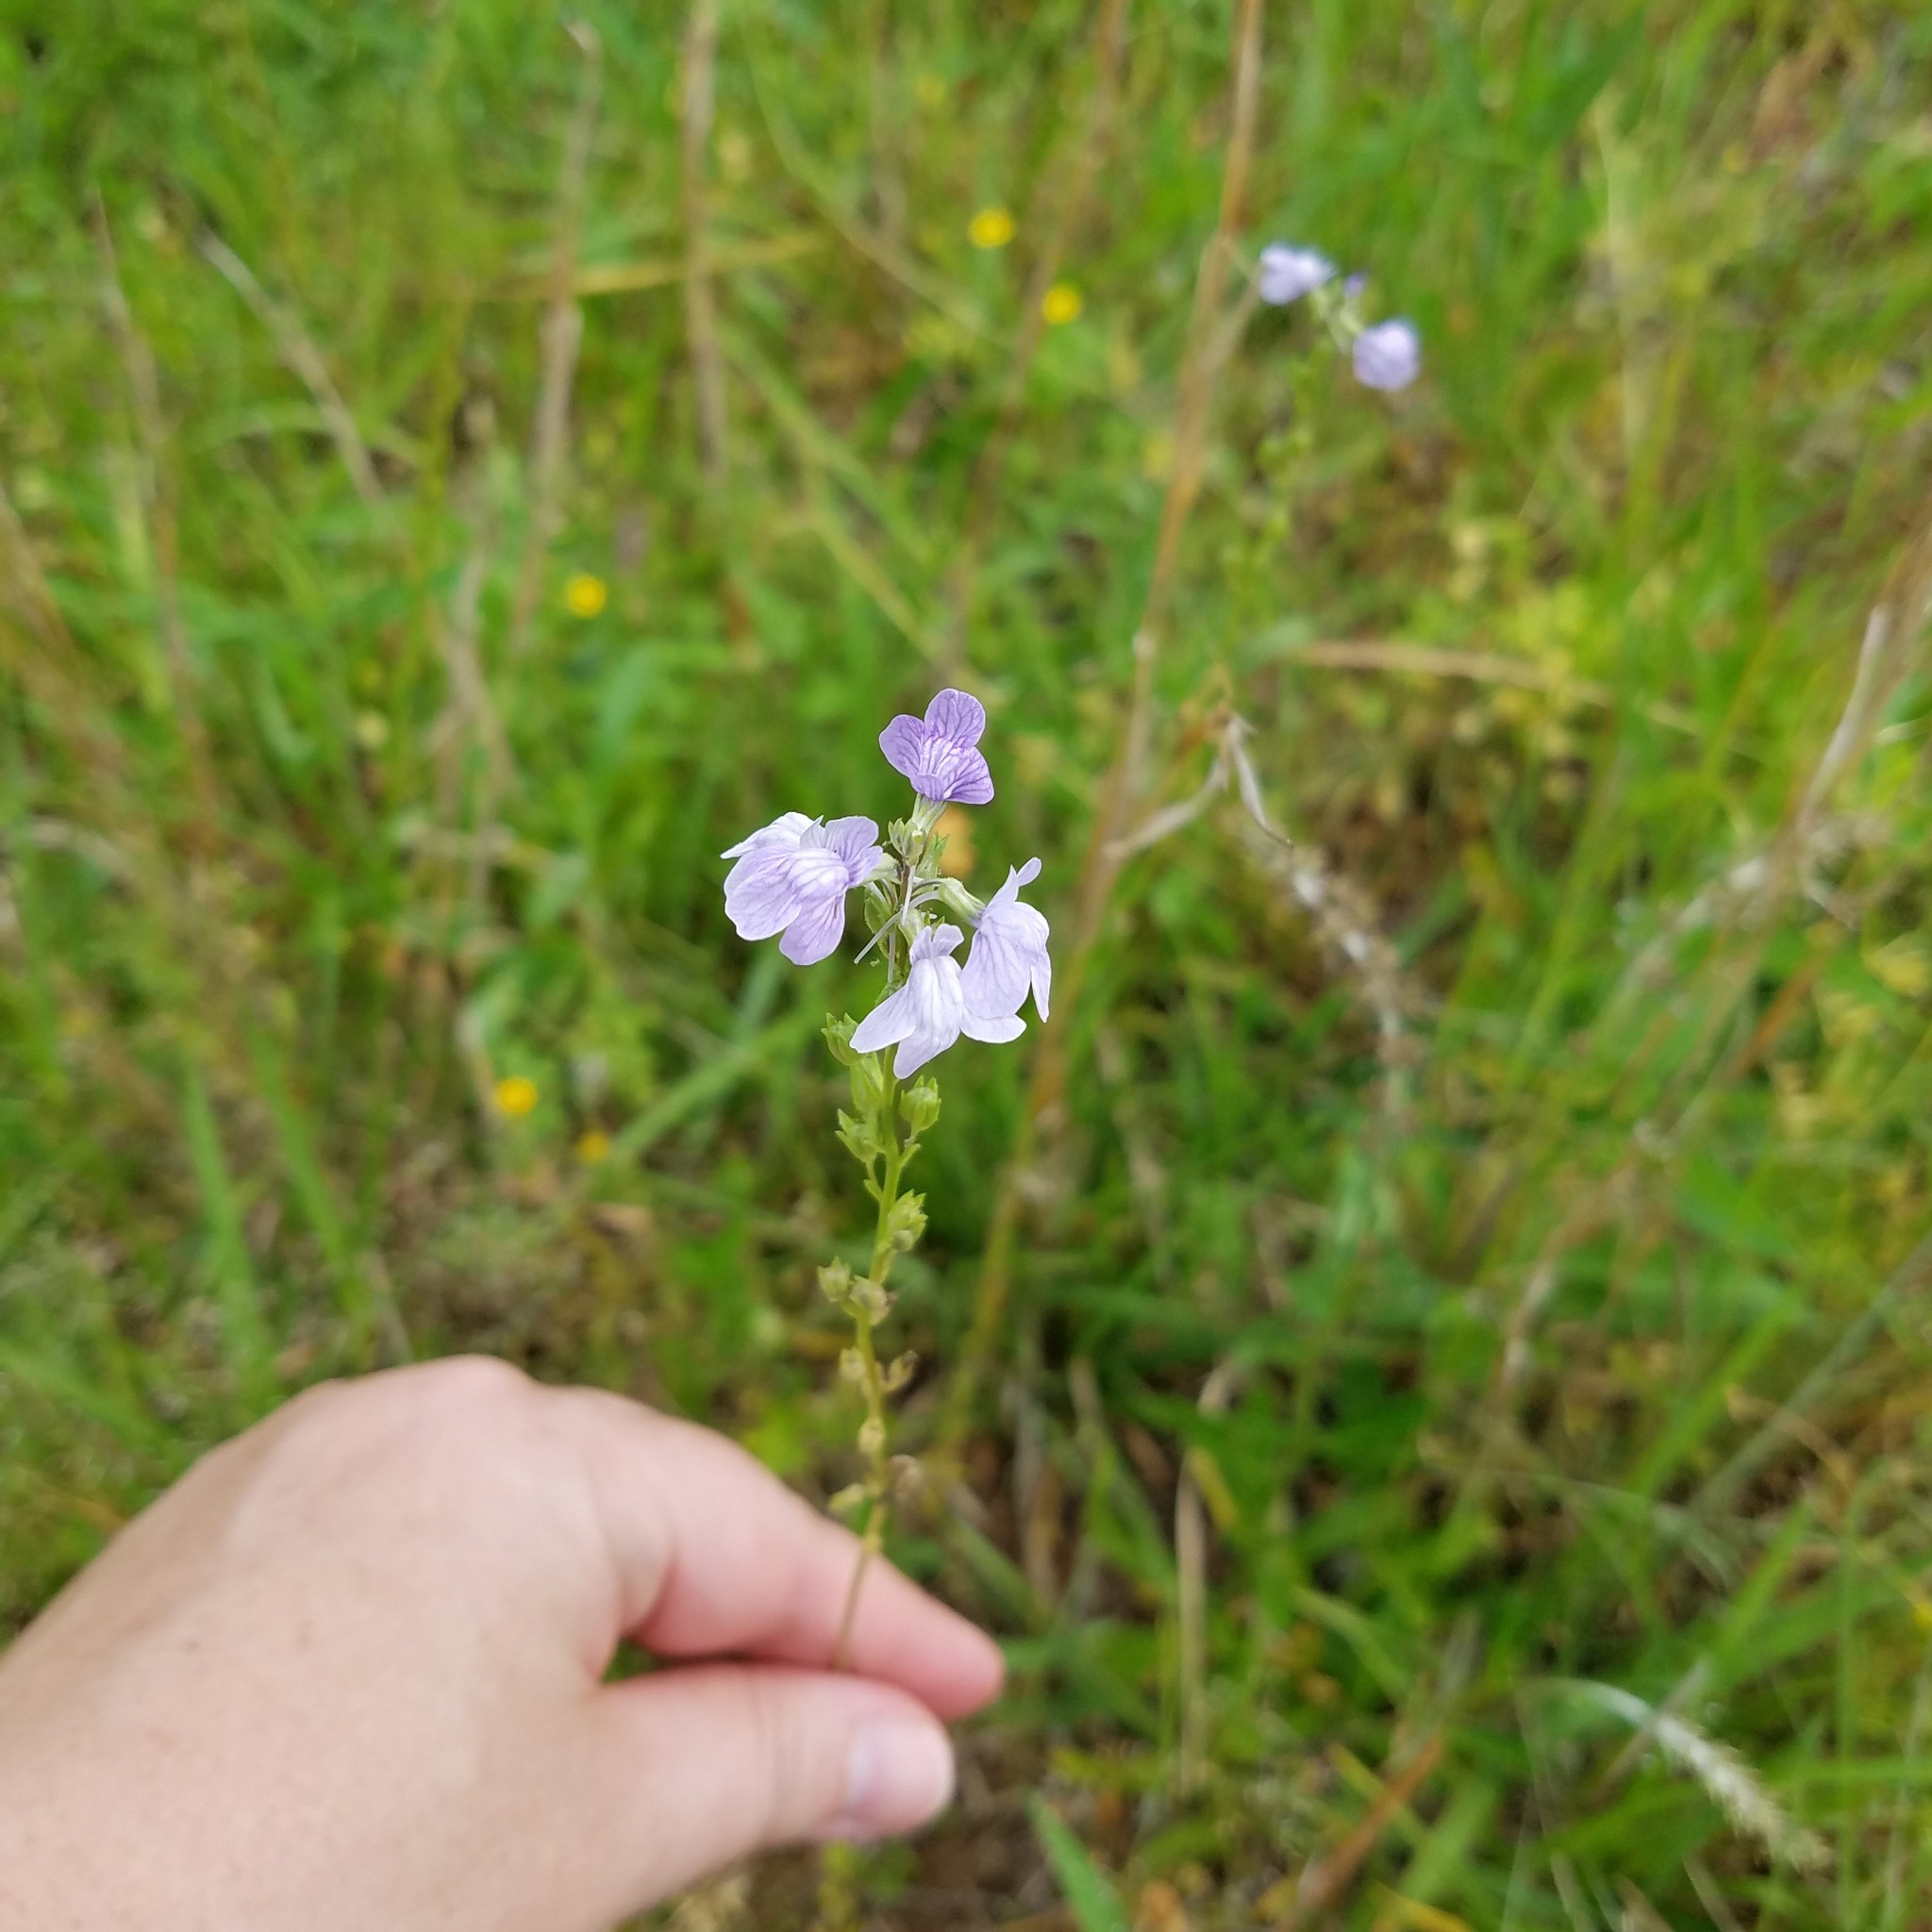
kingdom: Plantae
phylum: Tracheophyta
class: Magnoliopsida
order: Lamiales
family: Plantaginaceae
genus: Nuttallanthus
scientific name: Nuttallanthus texanus
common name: Texas toadflax
